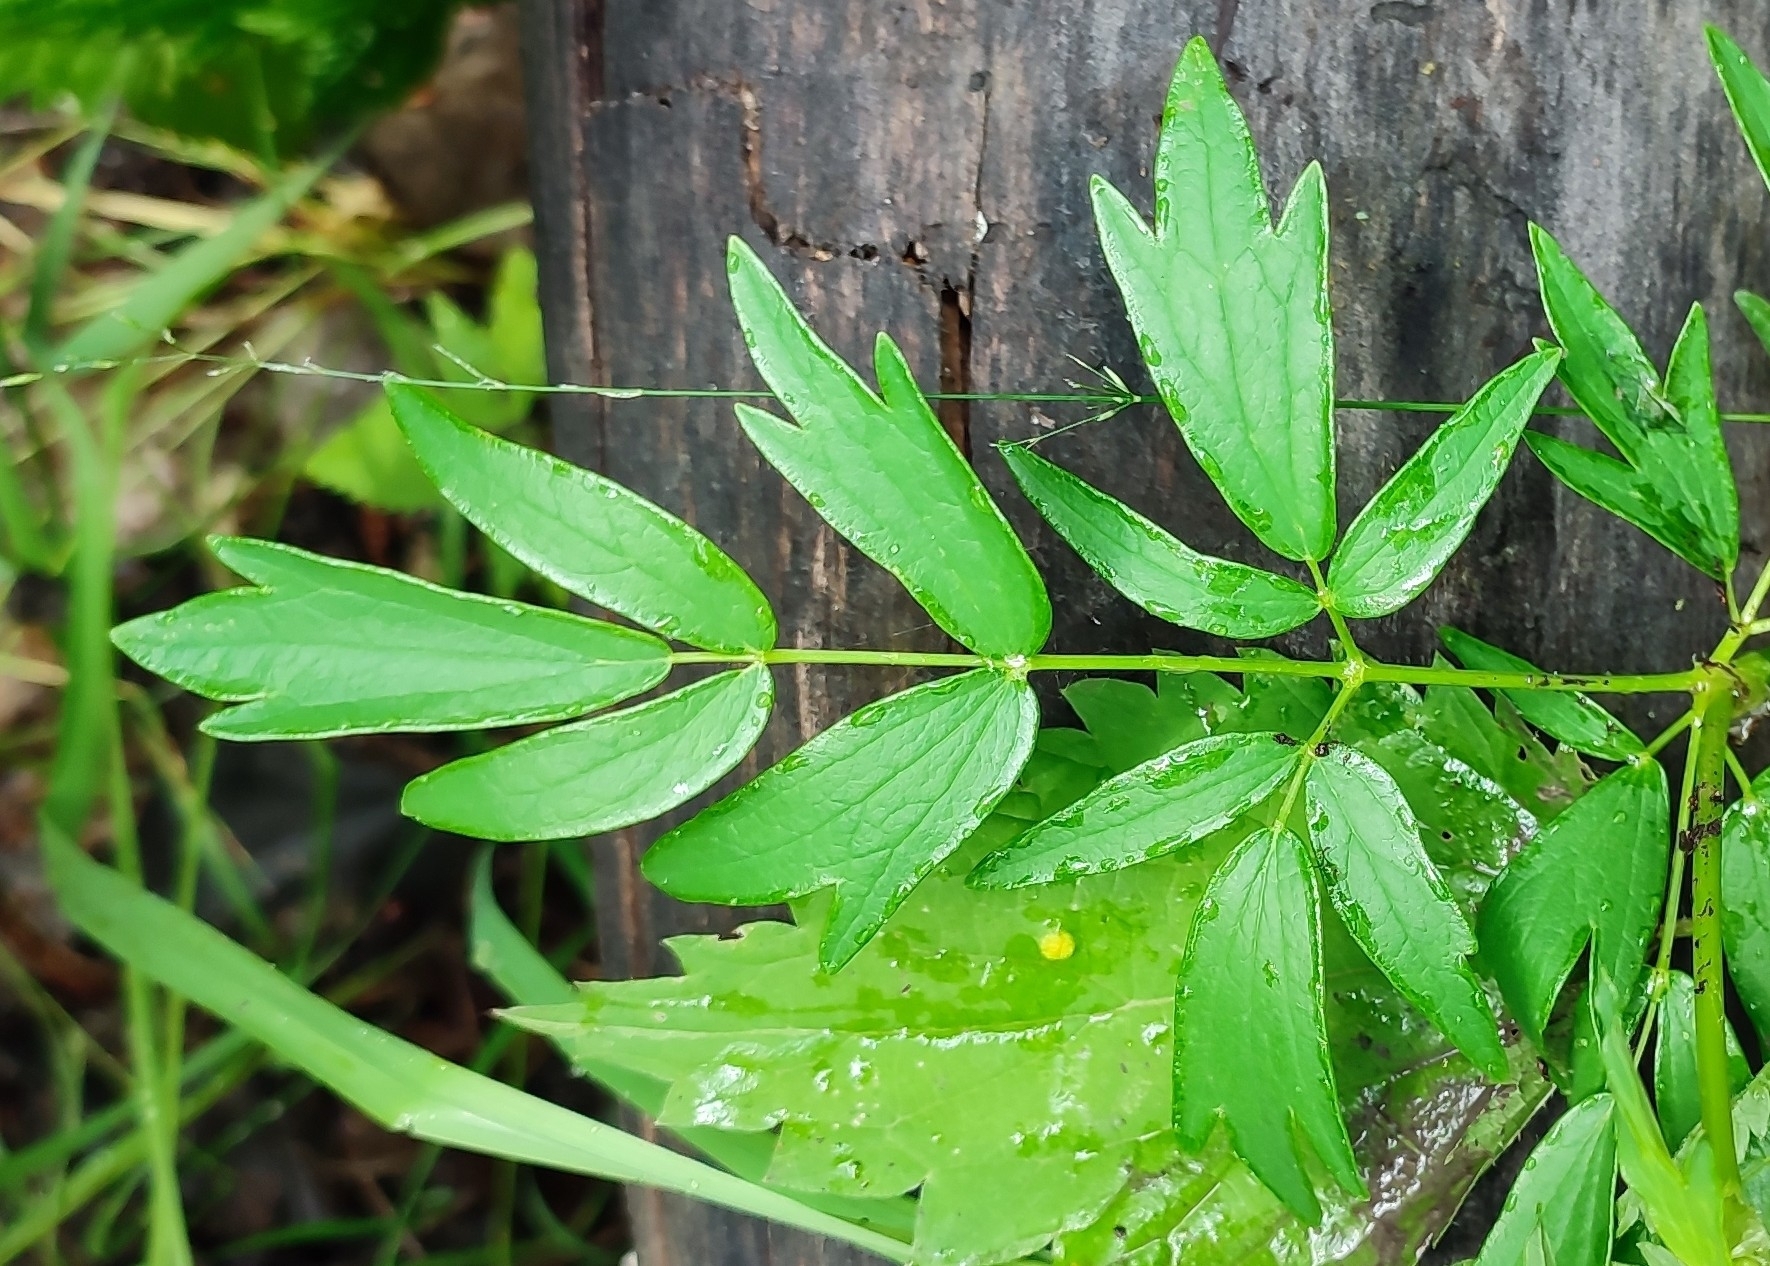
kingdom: Plantae
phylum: Tracheophyta
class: Magnoliopsida
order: Ranunculales
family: Ranunculaceae
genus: Thalictrum
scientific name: Thalictrum flavum
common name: Common meadow-rue
